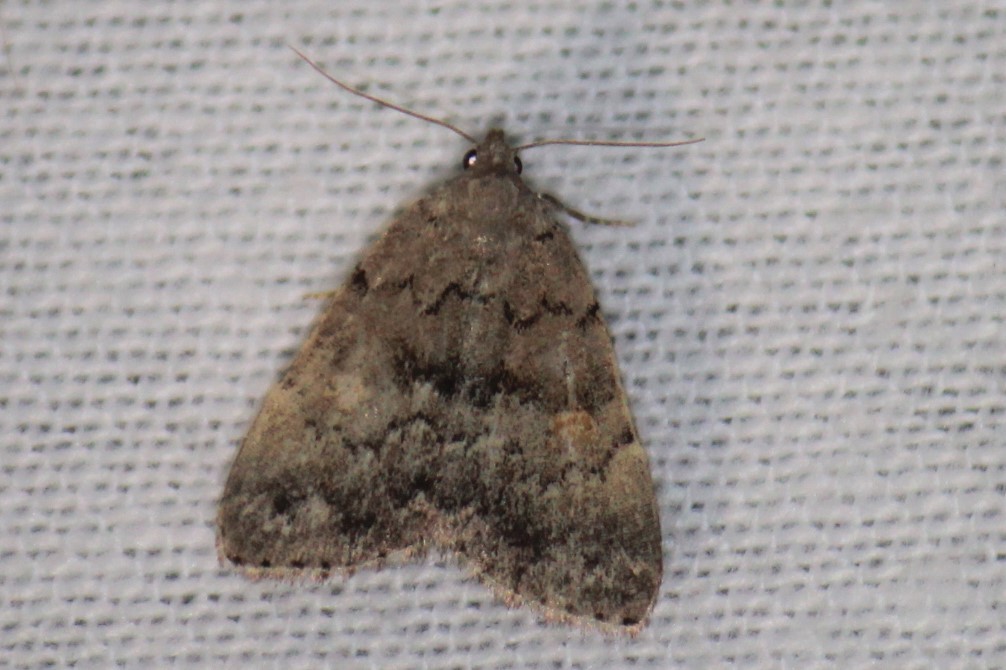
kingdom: Animalia
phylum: Arthropoda
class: Insecta
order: Lepidoptera
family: Erebidae
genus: Idia
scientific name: Idia aemula
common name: Common idia moth
